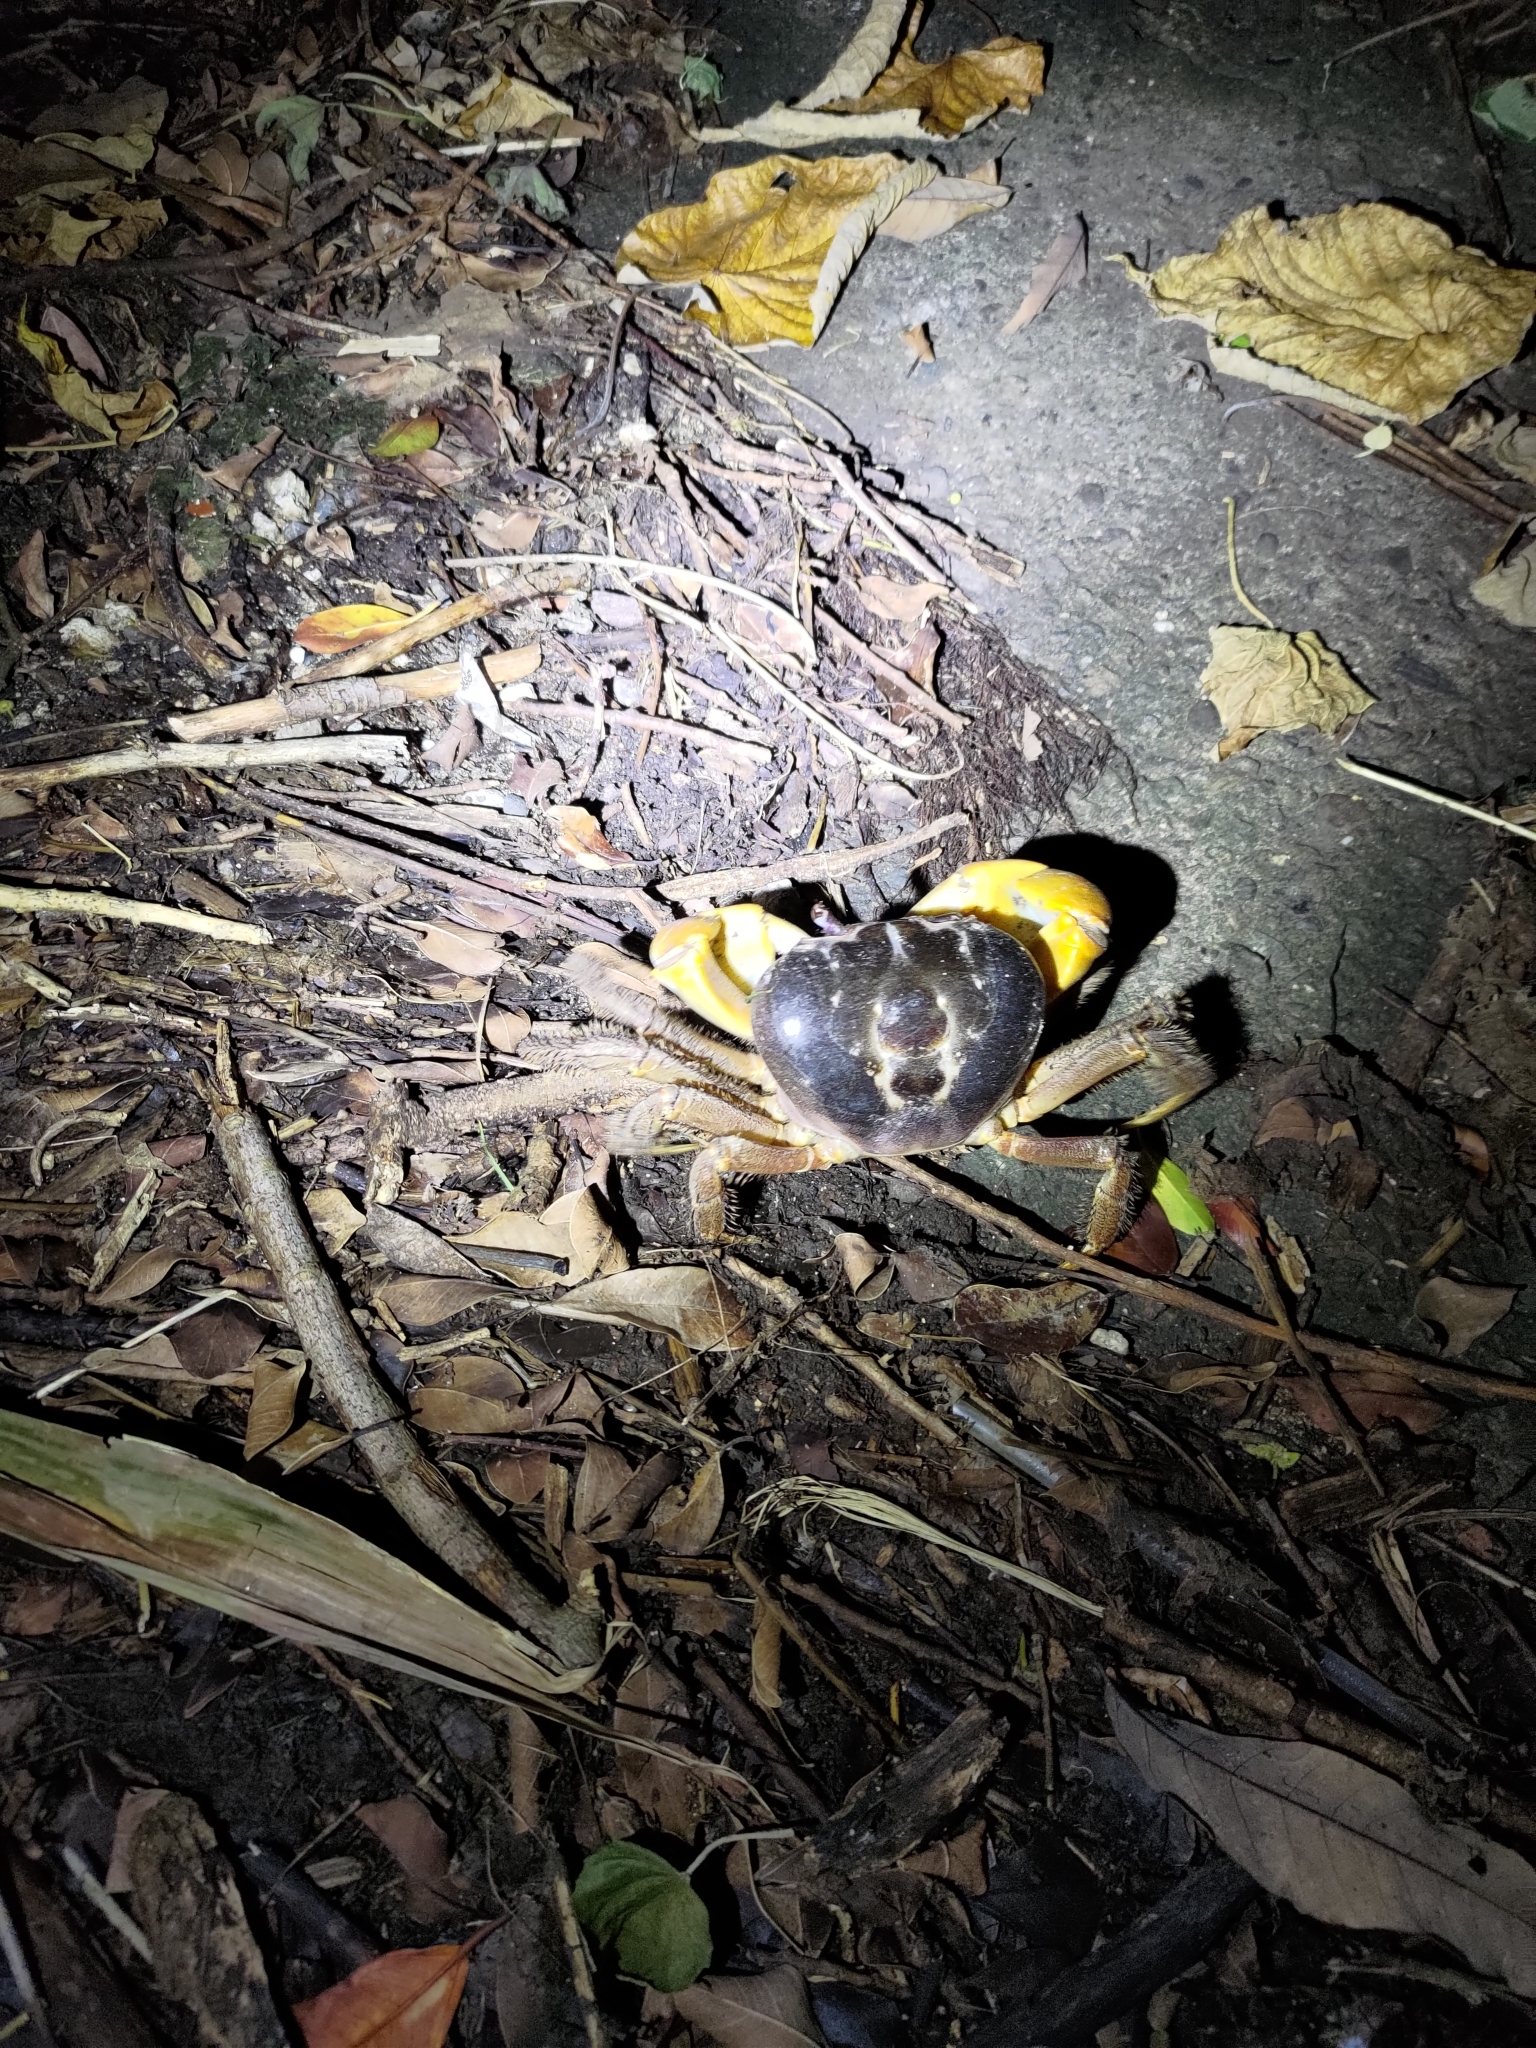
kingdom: Animalia
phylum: Arthropoda
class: Malacostraca
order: Decapoda
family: Gecarcinidae
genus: Tuerkayana
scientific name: Tuerkayana hirtipes
